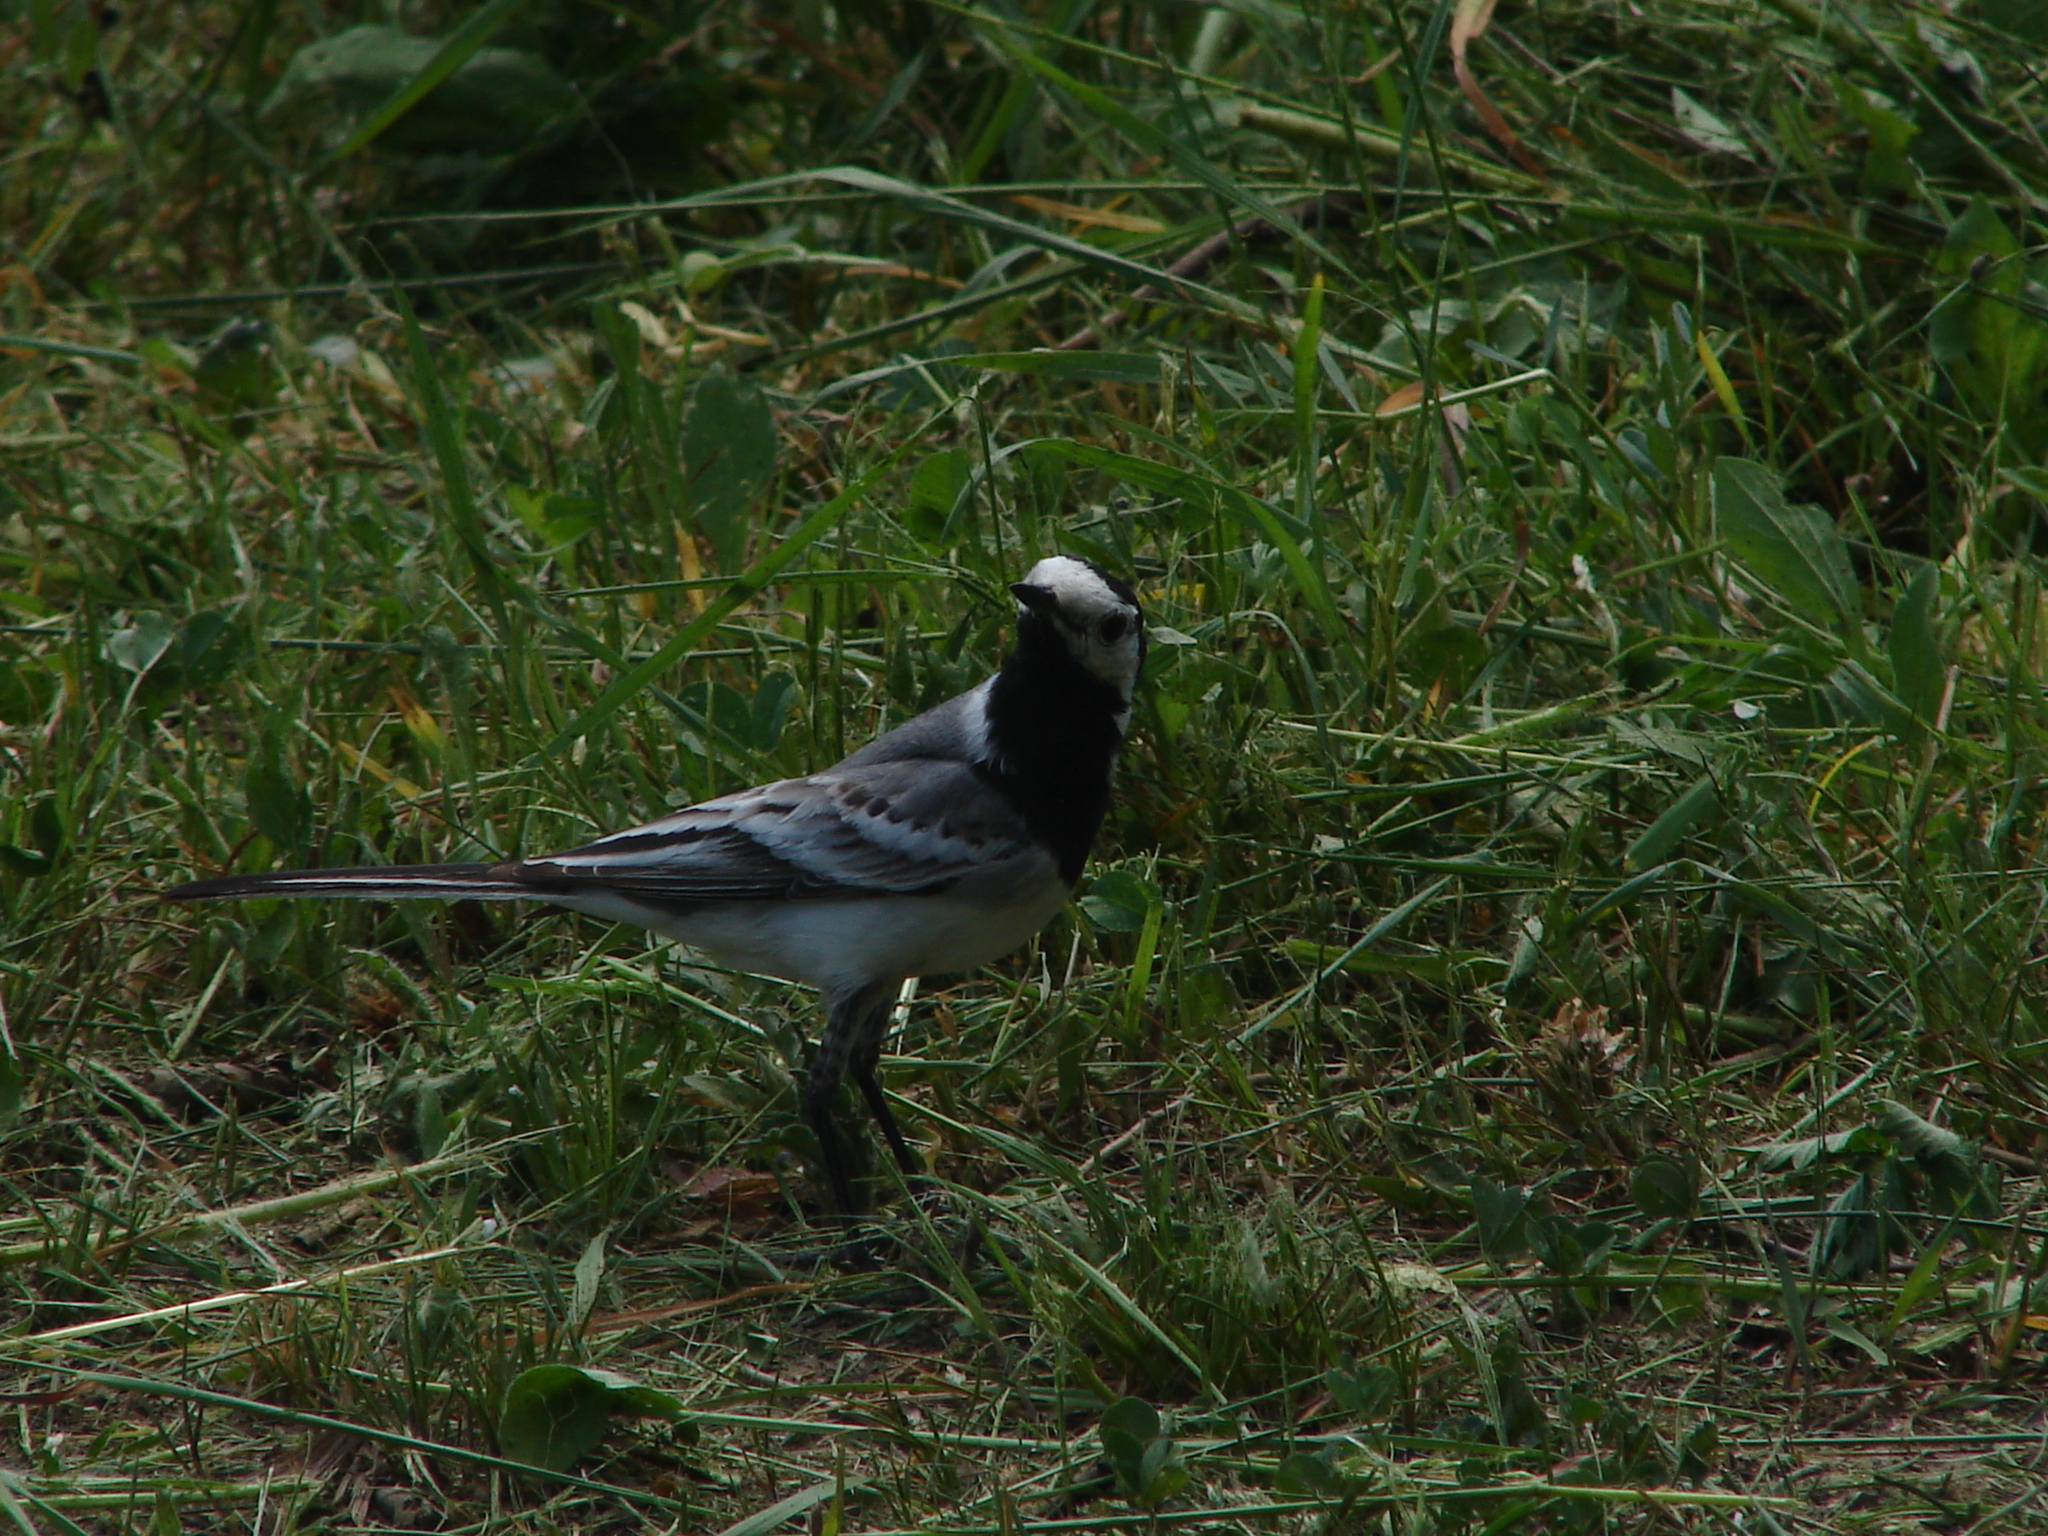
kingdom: Animalia
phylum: Chordata
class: Aves
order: Passeriformes
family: Motacillidae
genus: Motacilla
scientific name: Motacilla alba
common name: White wagtail
